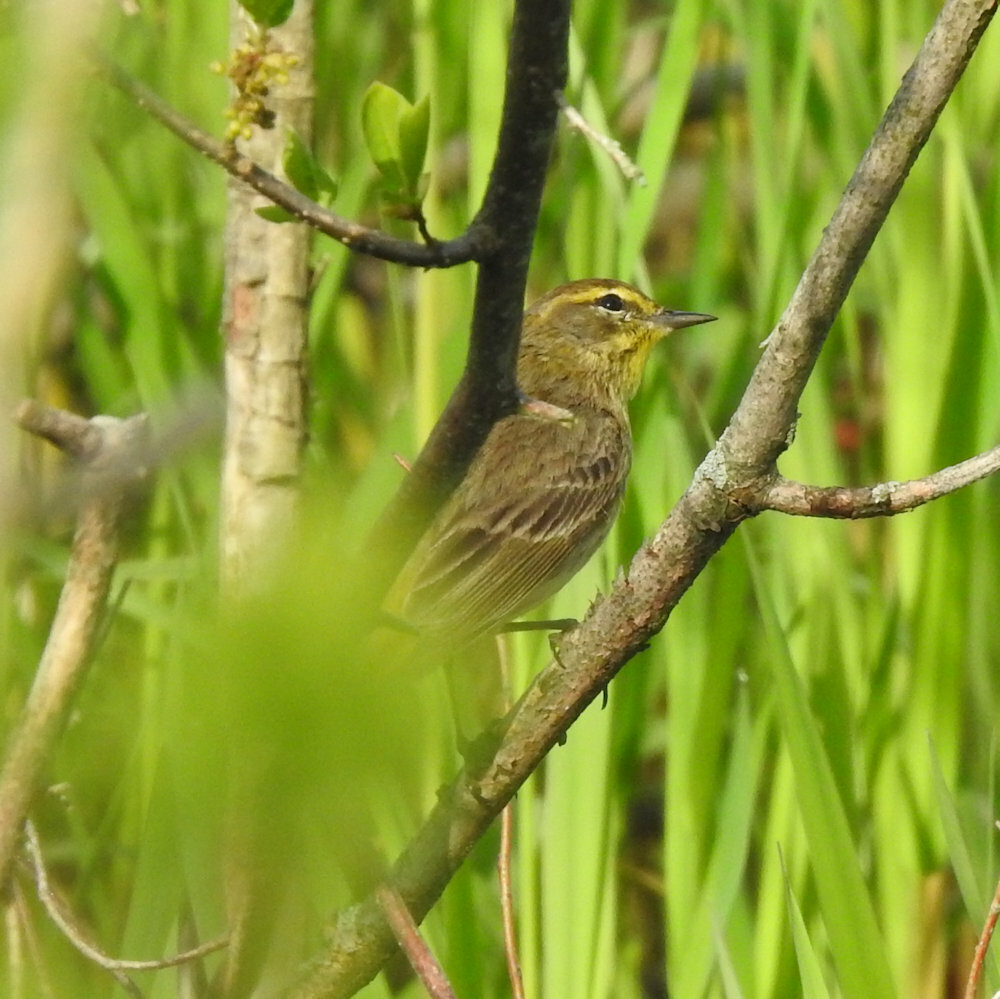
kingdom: Animalia
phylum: Chordata
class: Aves
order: Passeriformes
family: Parulidae
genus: Setophaga
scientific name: Setophaga palmarum
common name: Palm warbler
